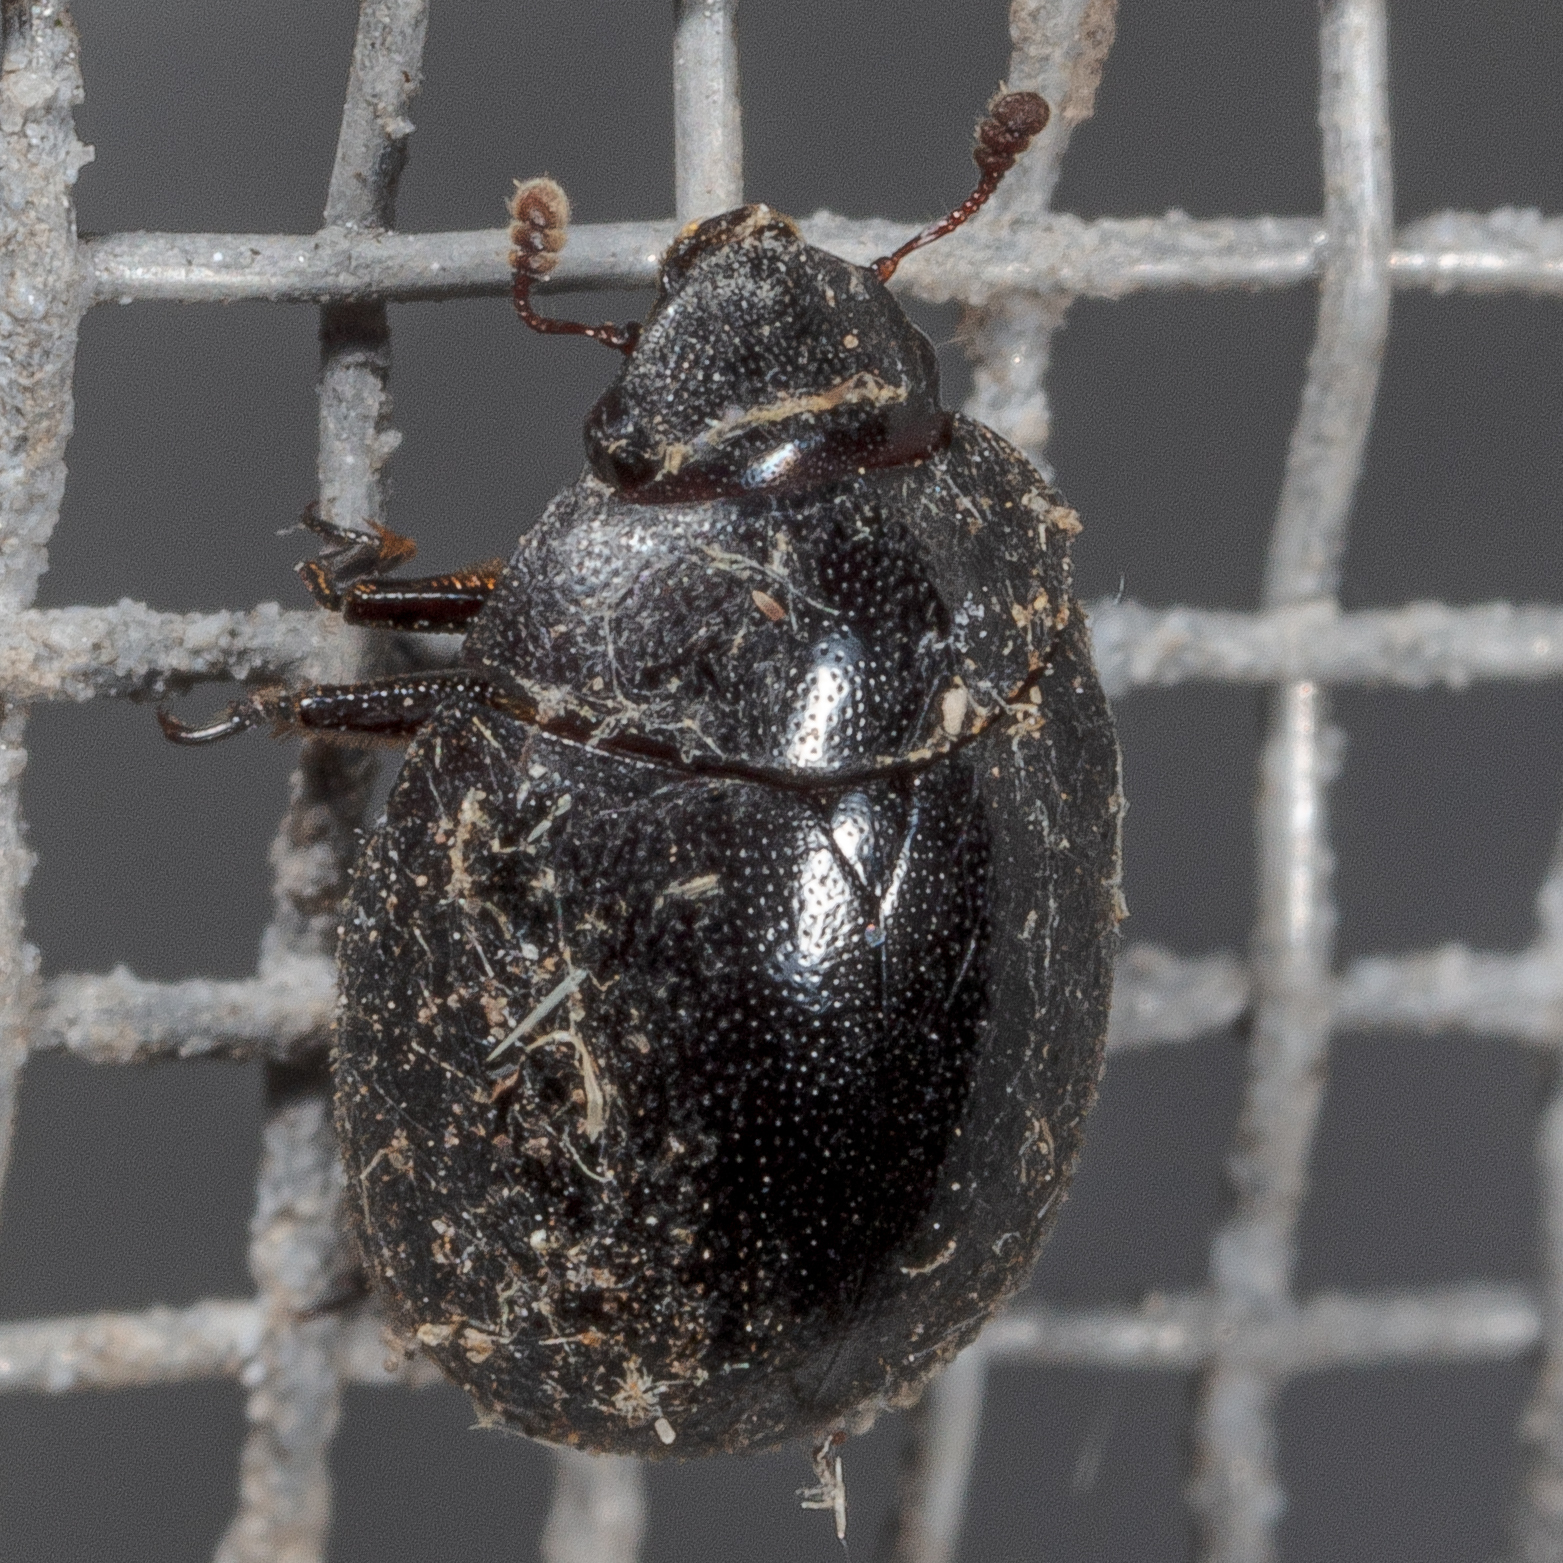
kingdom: Animalia
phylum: Arthropoda
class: Insecta
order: Coleoptera
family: Nosodendridae
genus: Nosodendron
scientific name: Nosodendron unicolor
